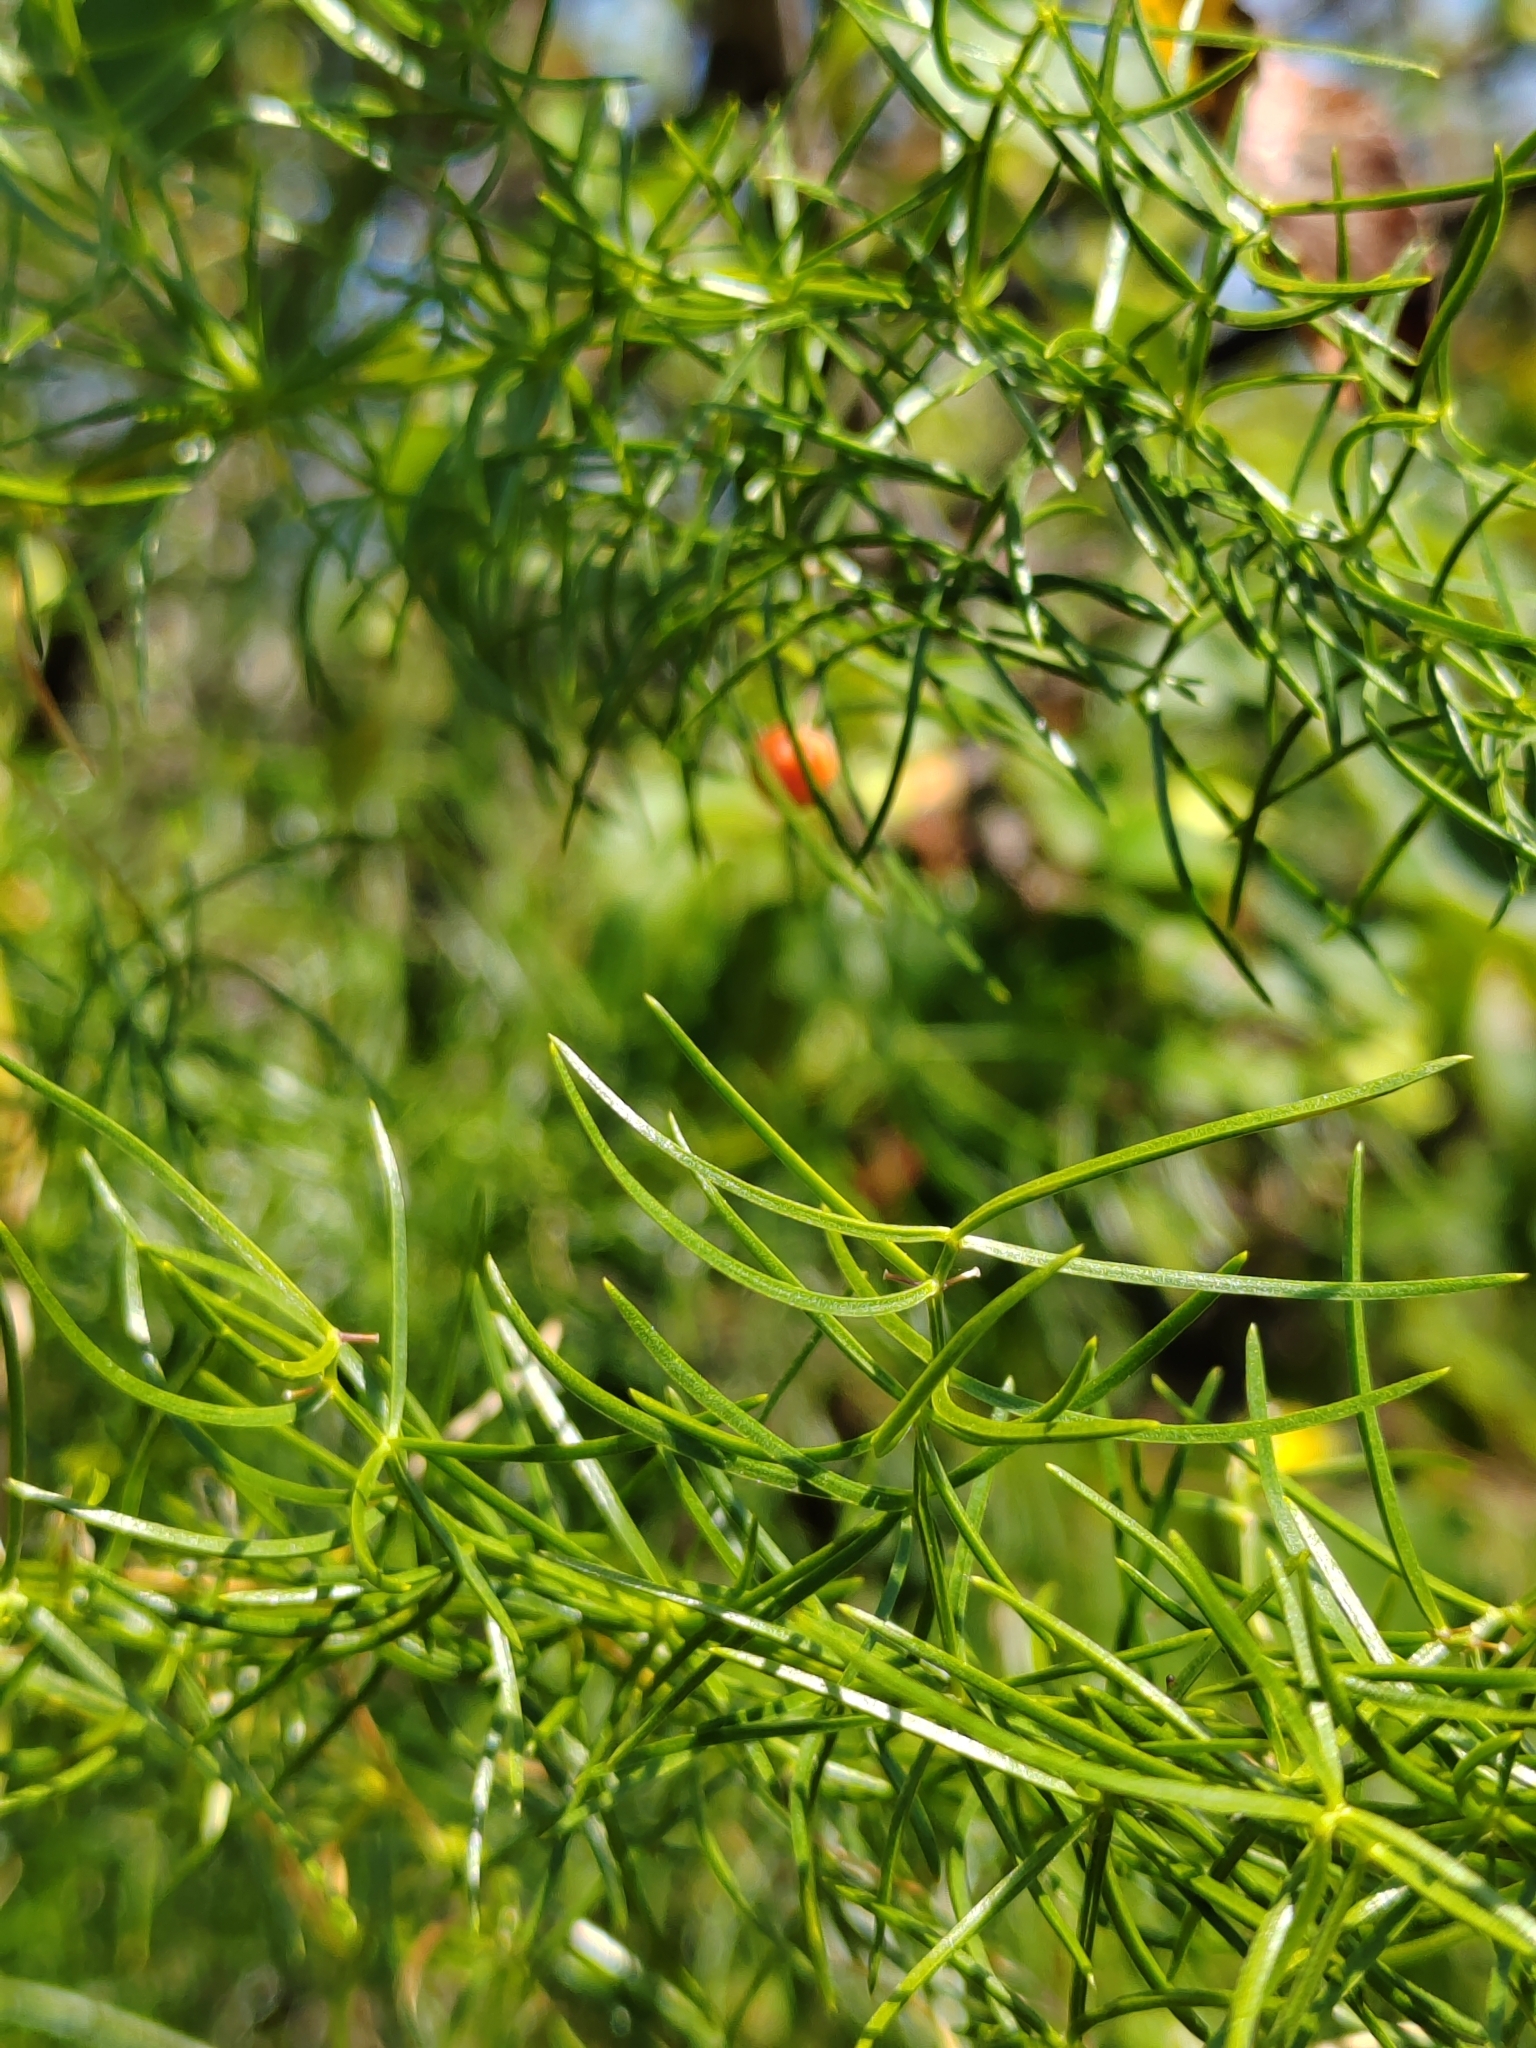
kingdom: Plantae
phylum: Tracheophyta
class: Liliopsida
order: Asparagales
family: Asparagaceae
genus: Asparagus
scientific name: Asparagus verticillatus
